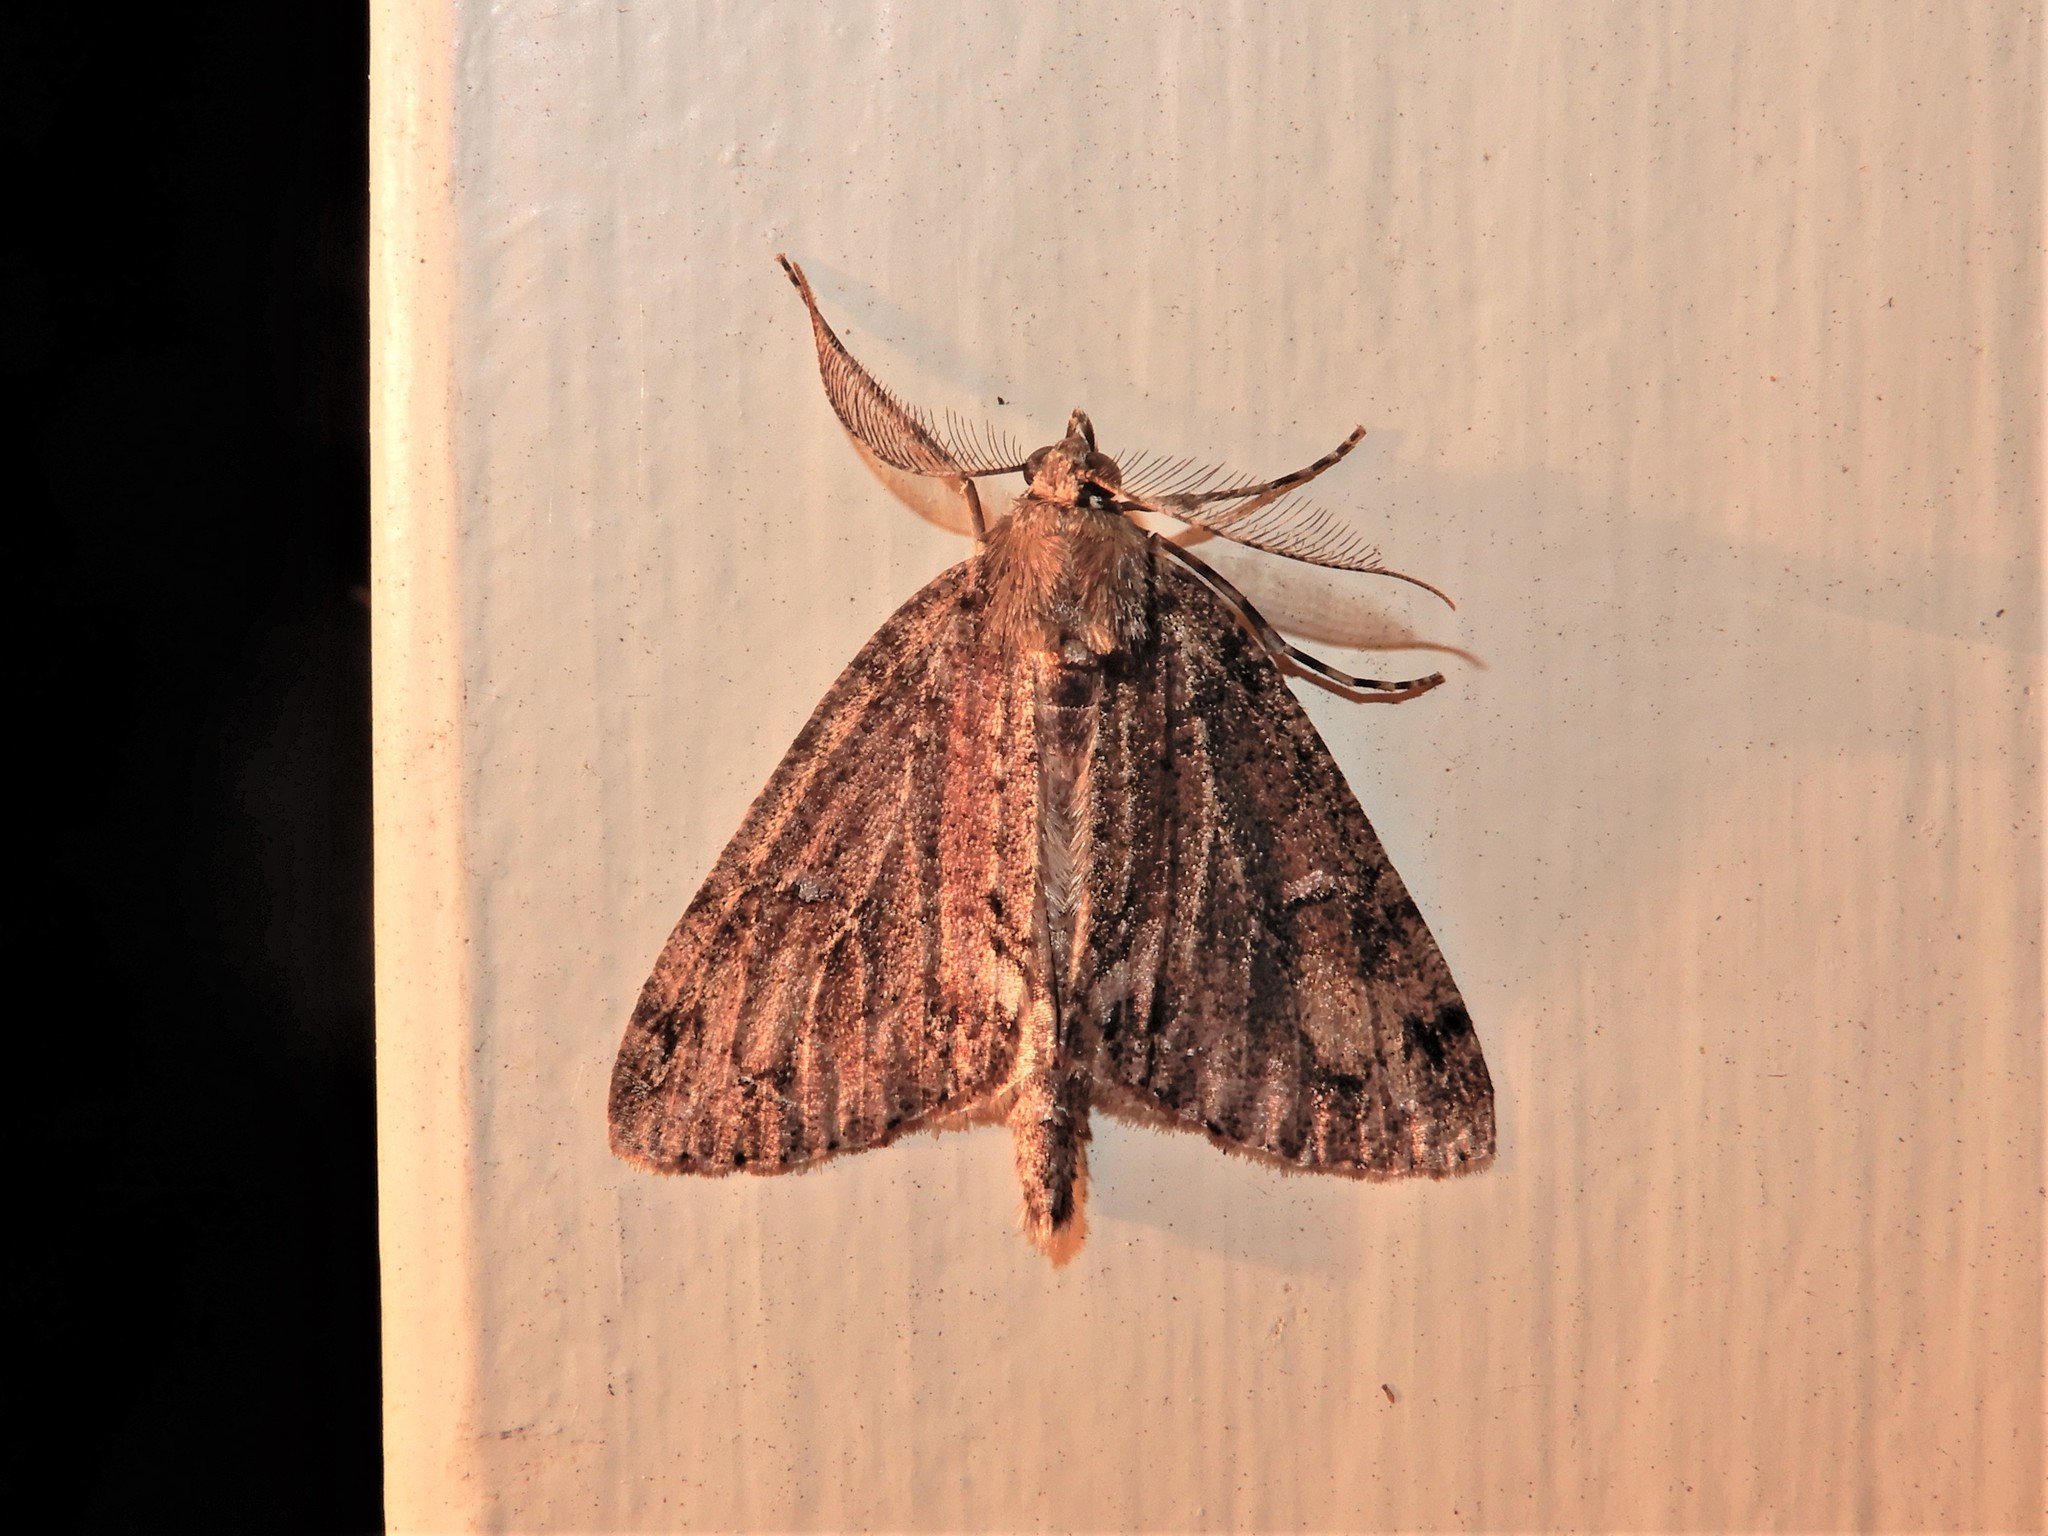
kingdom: Animalia
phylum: Arthropoda
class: Insecta
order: Lepidoptera
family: Geometridae
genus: Pseudocoremia
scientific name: Pseudocoremia suavis
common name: Common forest looper
